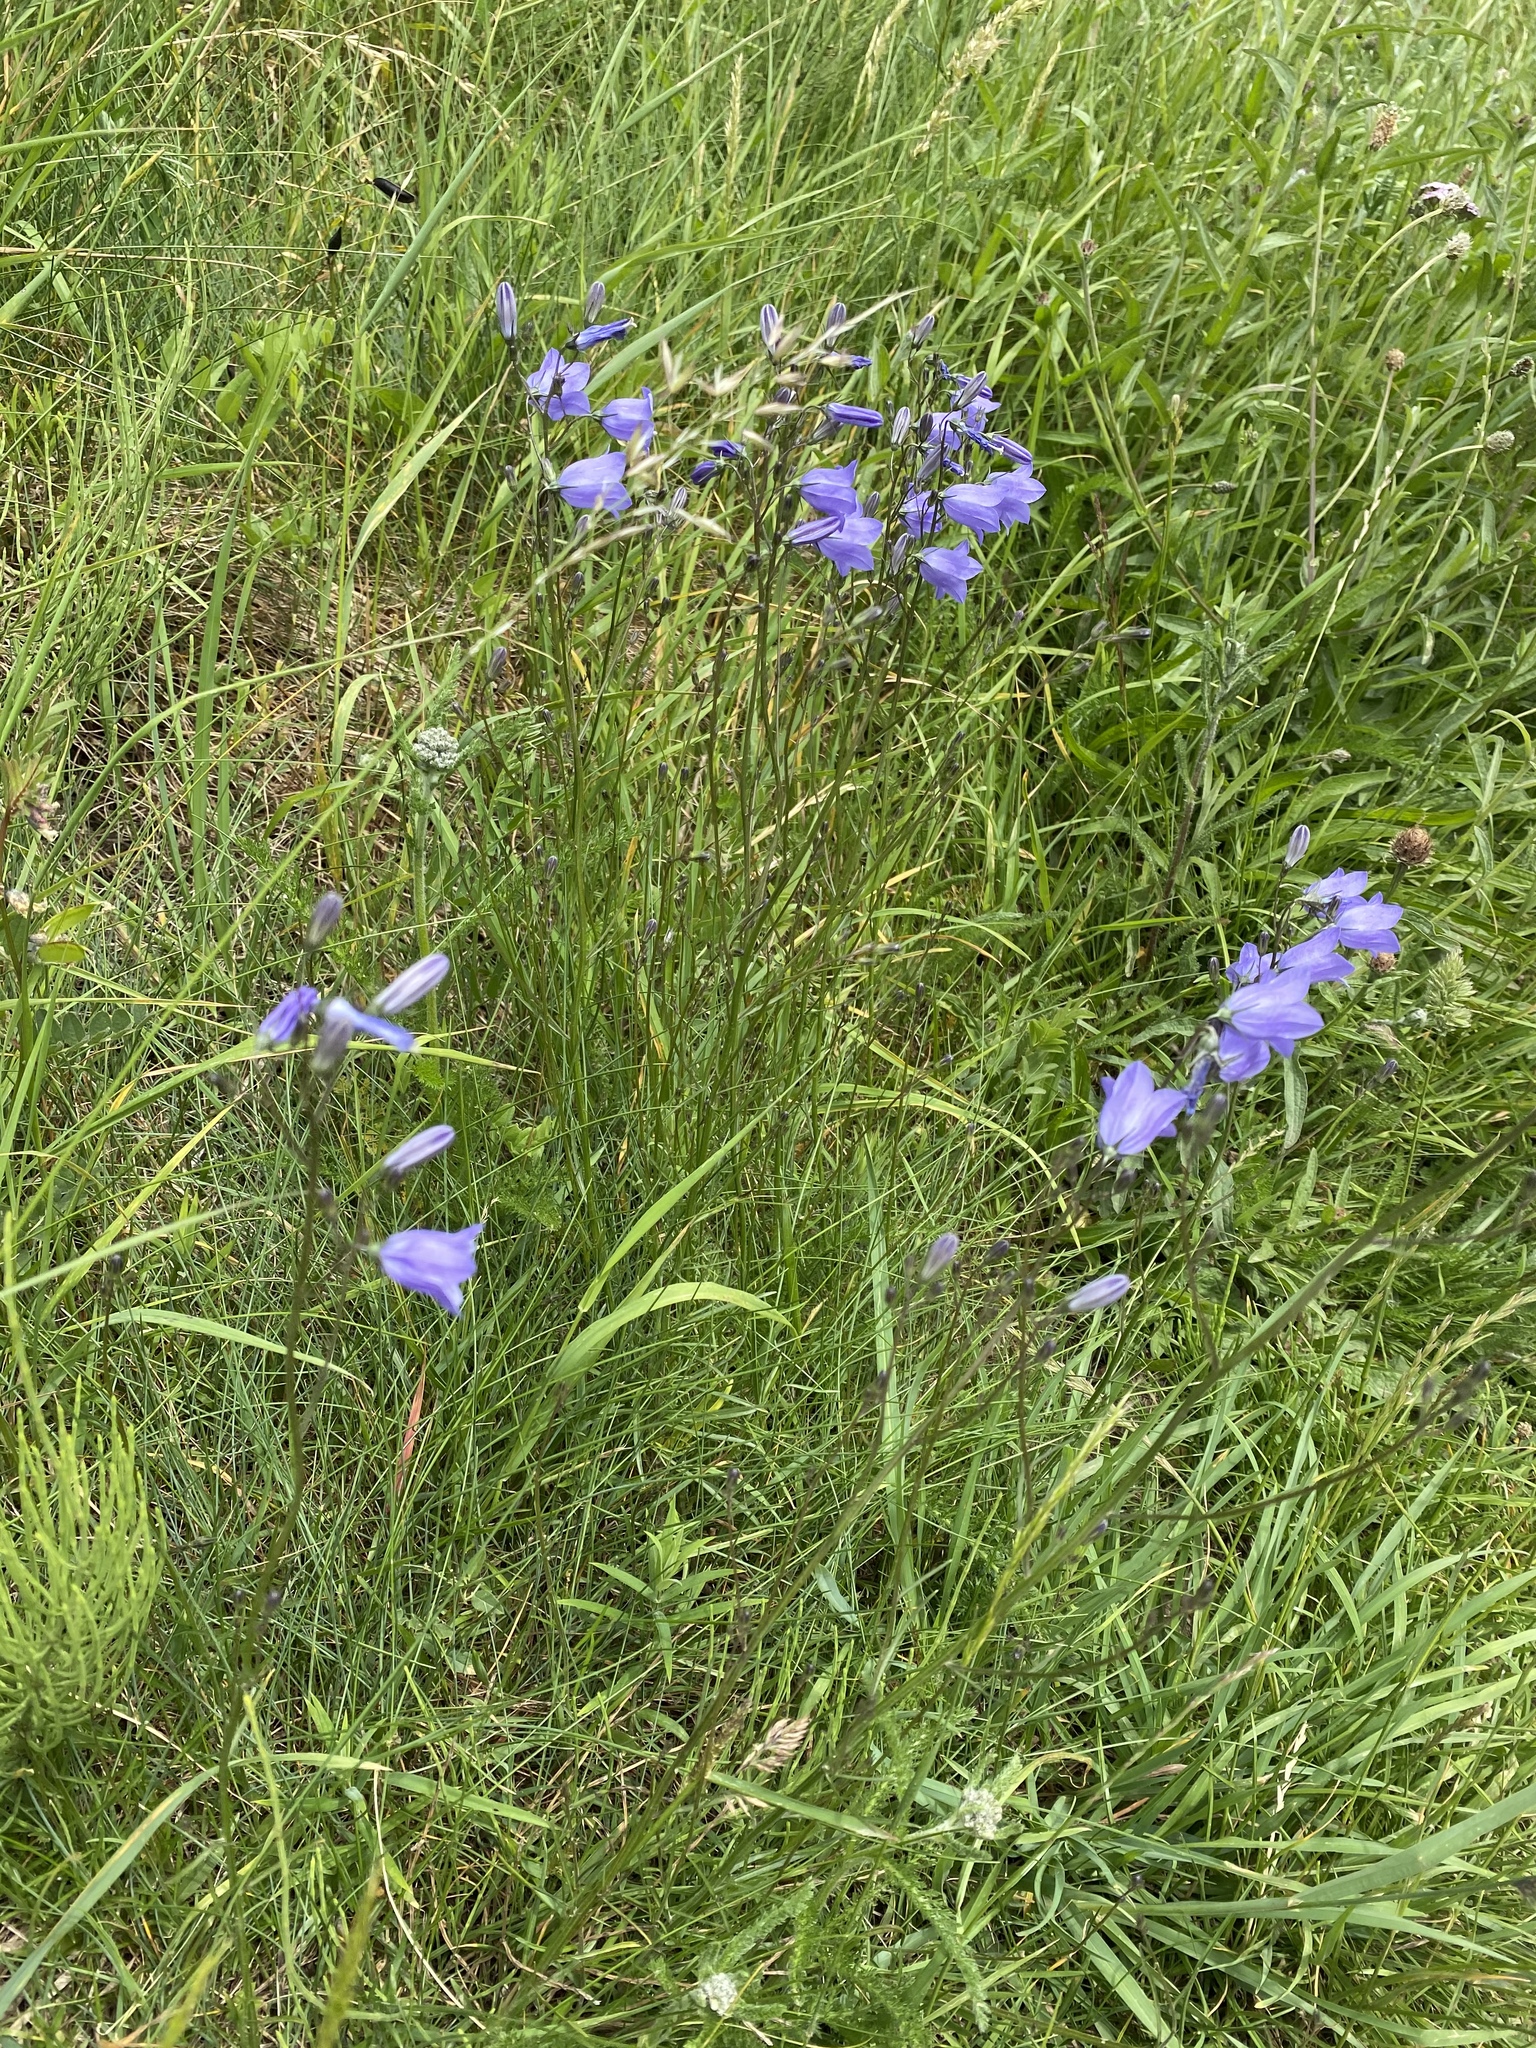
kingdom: Plantae
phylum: Tracheophyta
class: Magnoliopsida
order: Asterales
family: Campanulaceae
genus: Campanula
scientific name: Campanula rotundifolia
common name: Harebell
